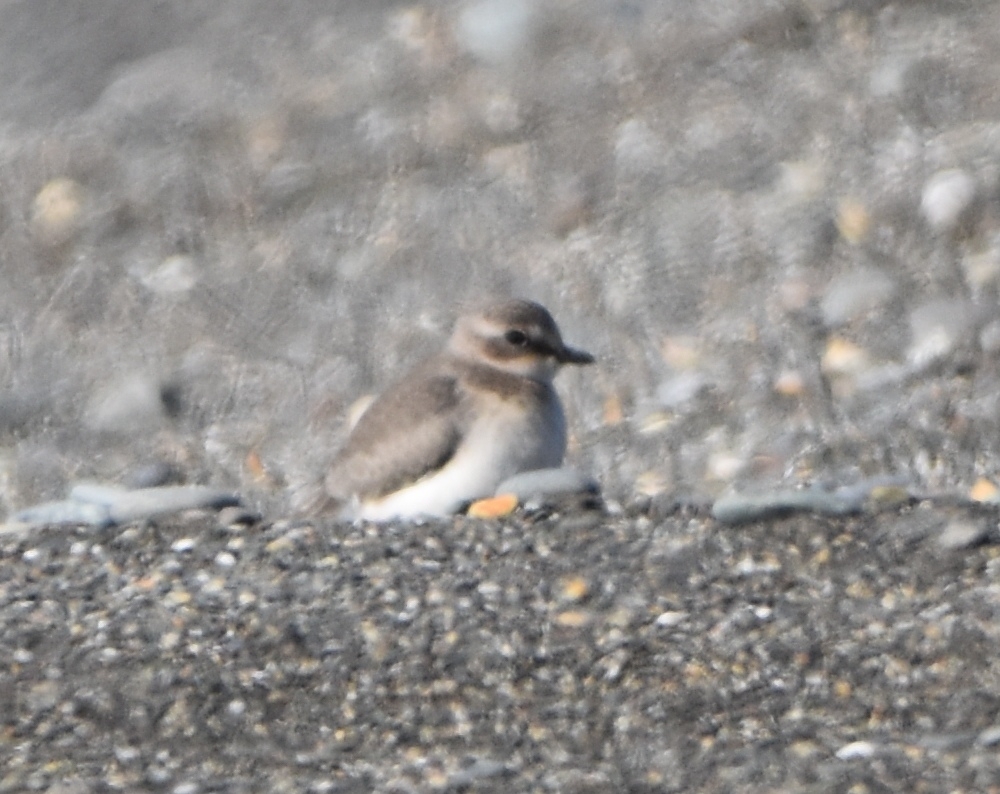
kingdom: Animalia
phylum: Chordata
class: Aves
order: Charadriiformes
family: Charadriidae
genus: Anarhynchus
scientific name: Anarhynchus
